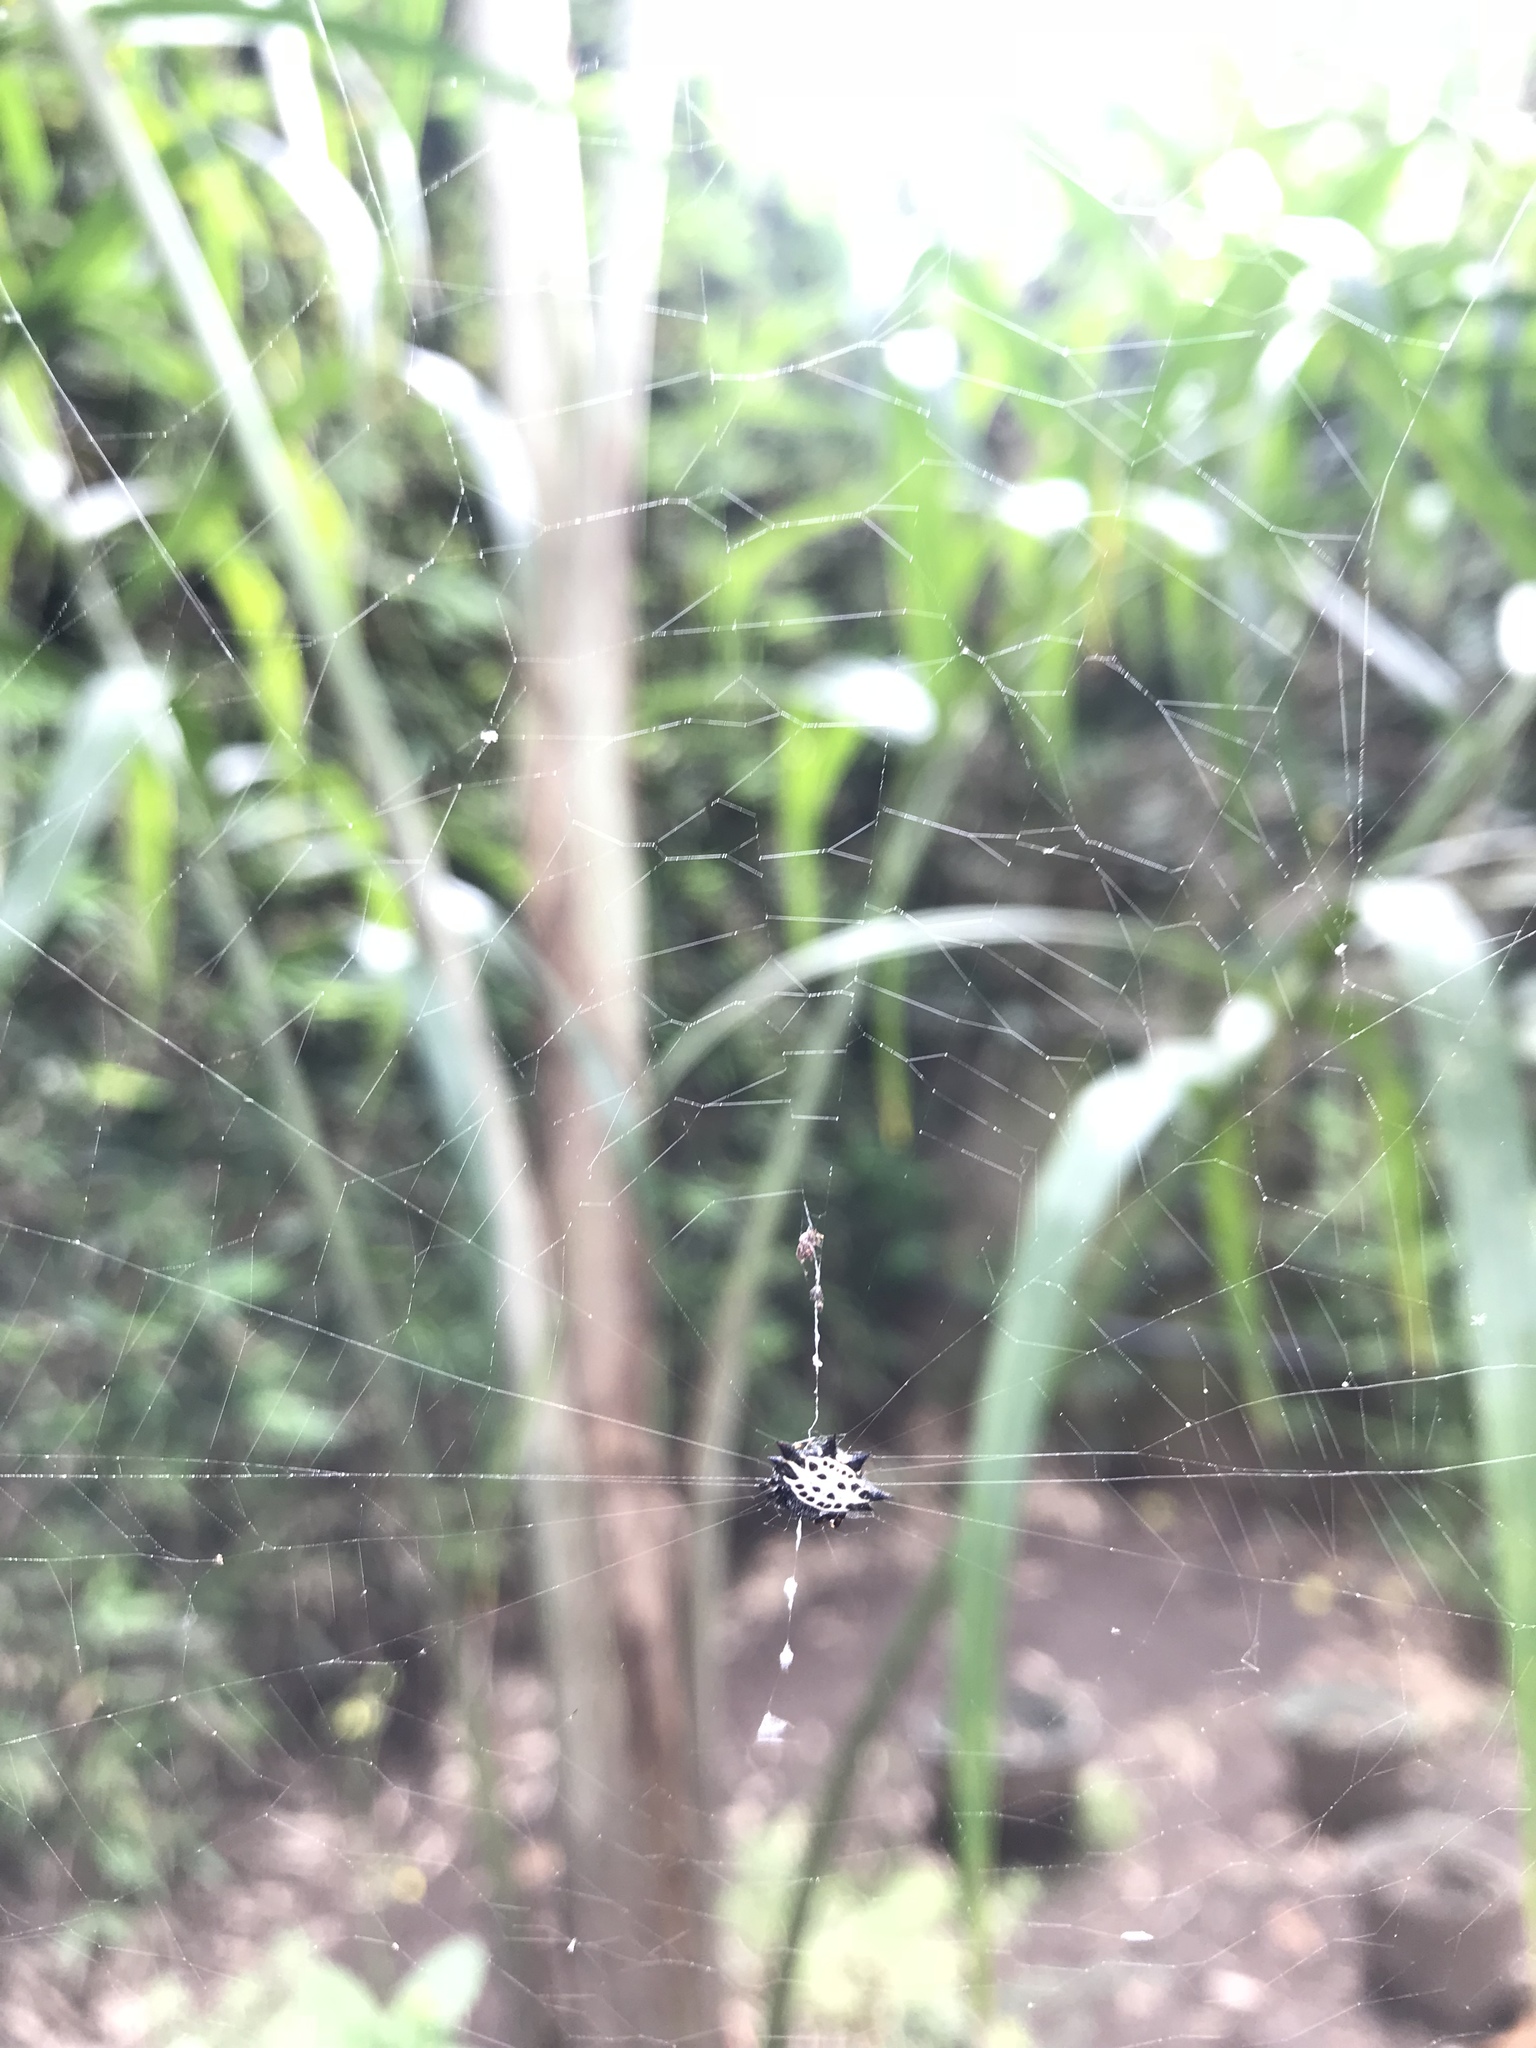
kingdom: Animalia
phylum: Arthropoda
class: Arachnida
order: Araneae
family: Araneidae
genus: Gasteracantha
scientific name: Gasteracantha cancriformis
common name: Orb weavers
